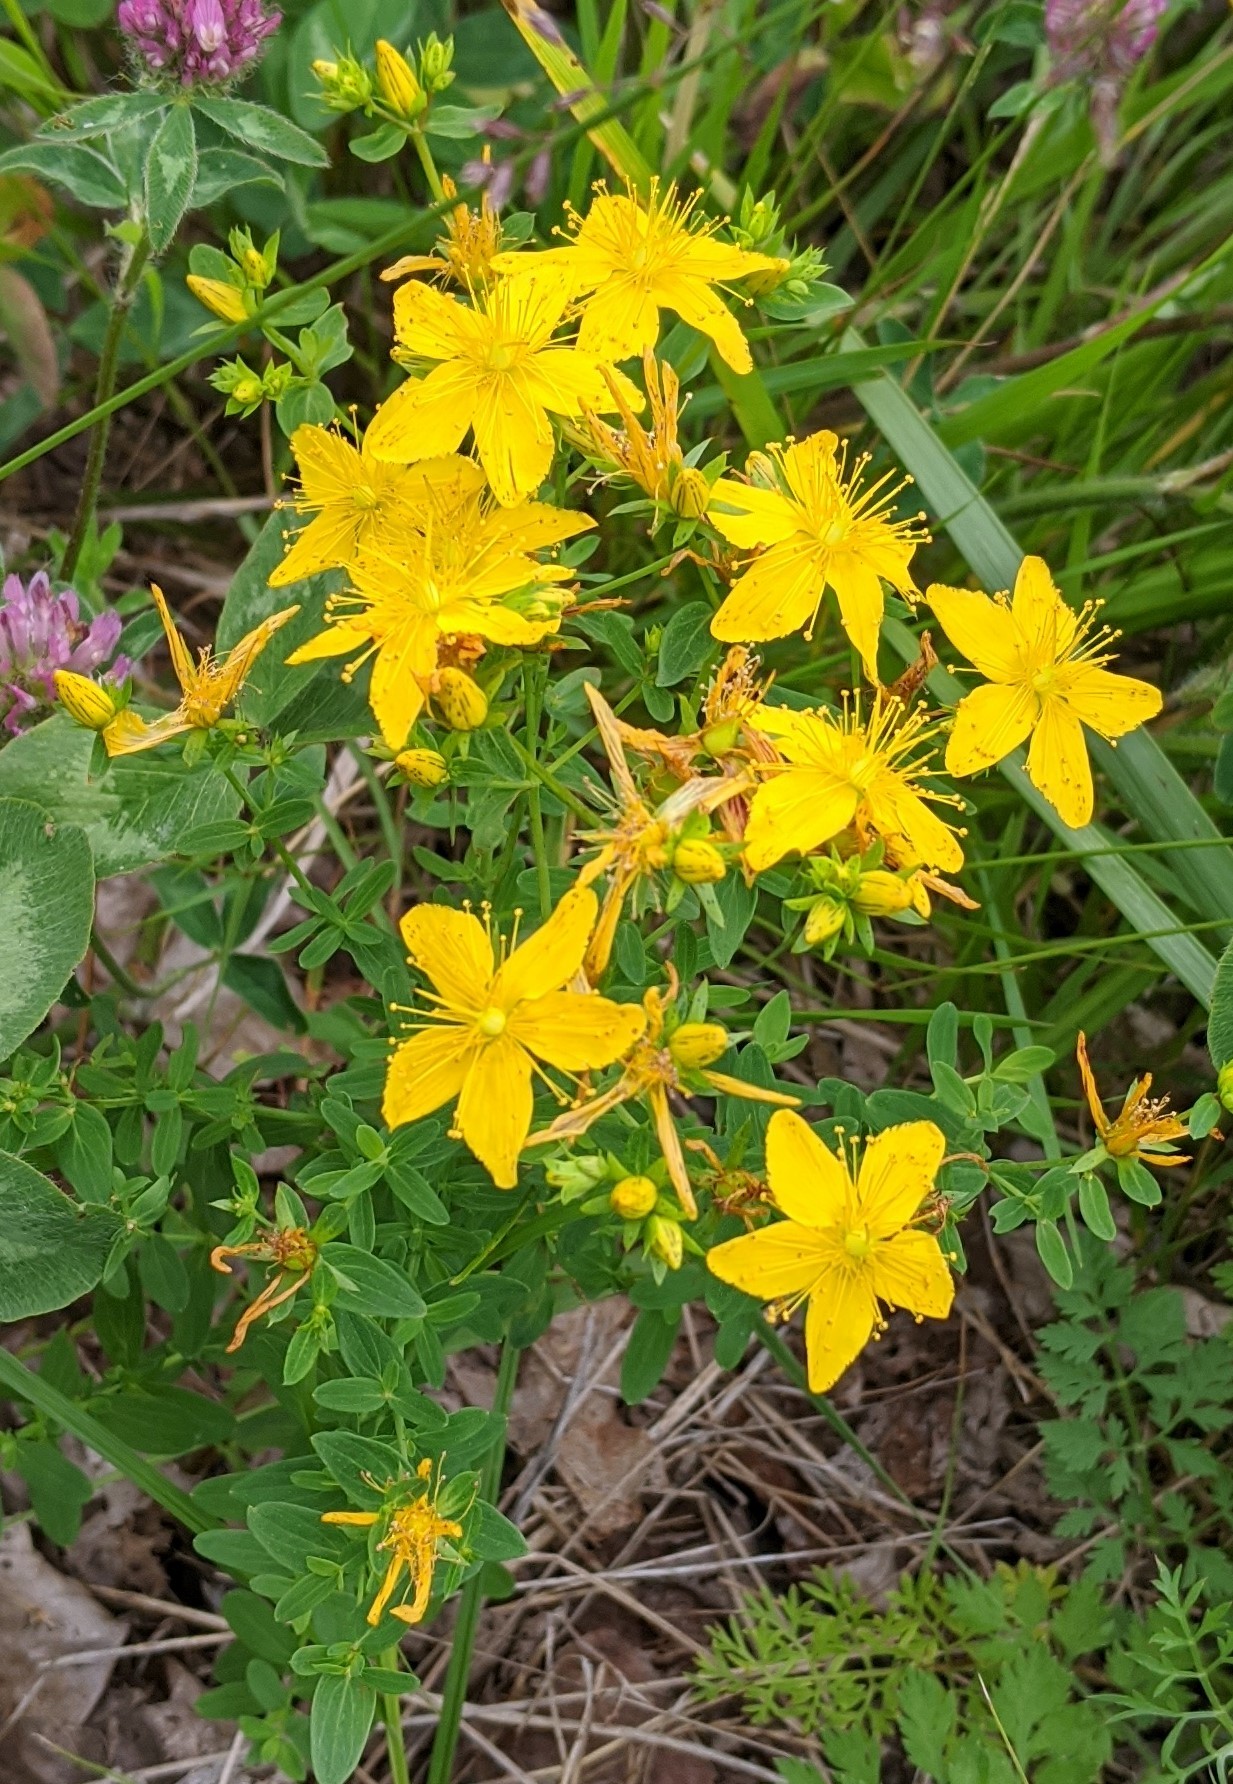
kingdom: Plantae
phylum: Tracheophyta
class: Magnoliopsida
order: Malpighiales
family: Hypericaceae
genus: Hypericum
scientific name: Hypericum perforatum
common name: Common st. johnswort
